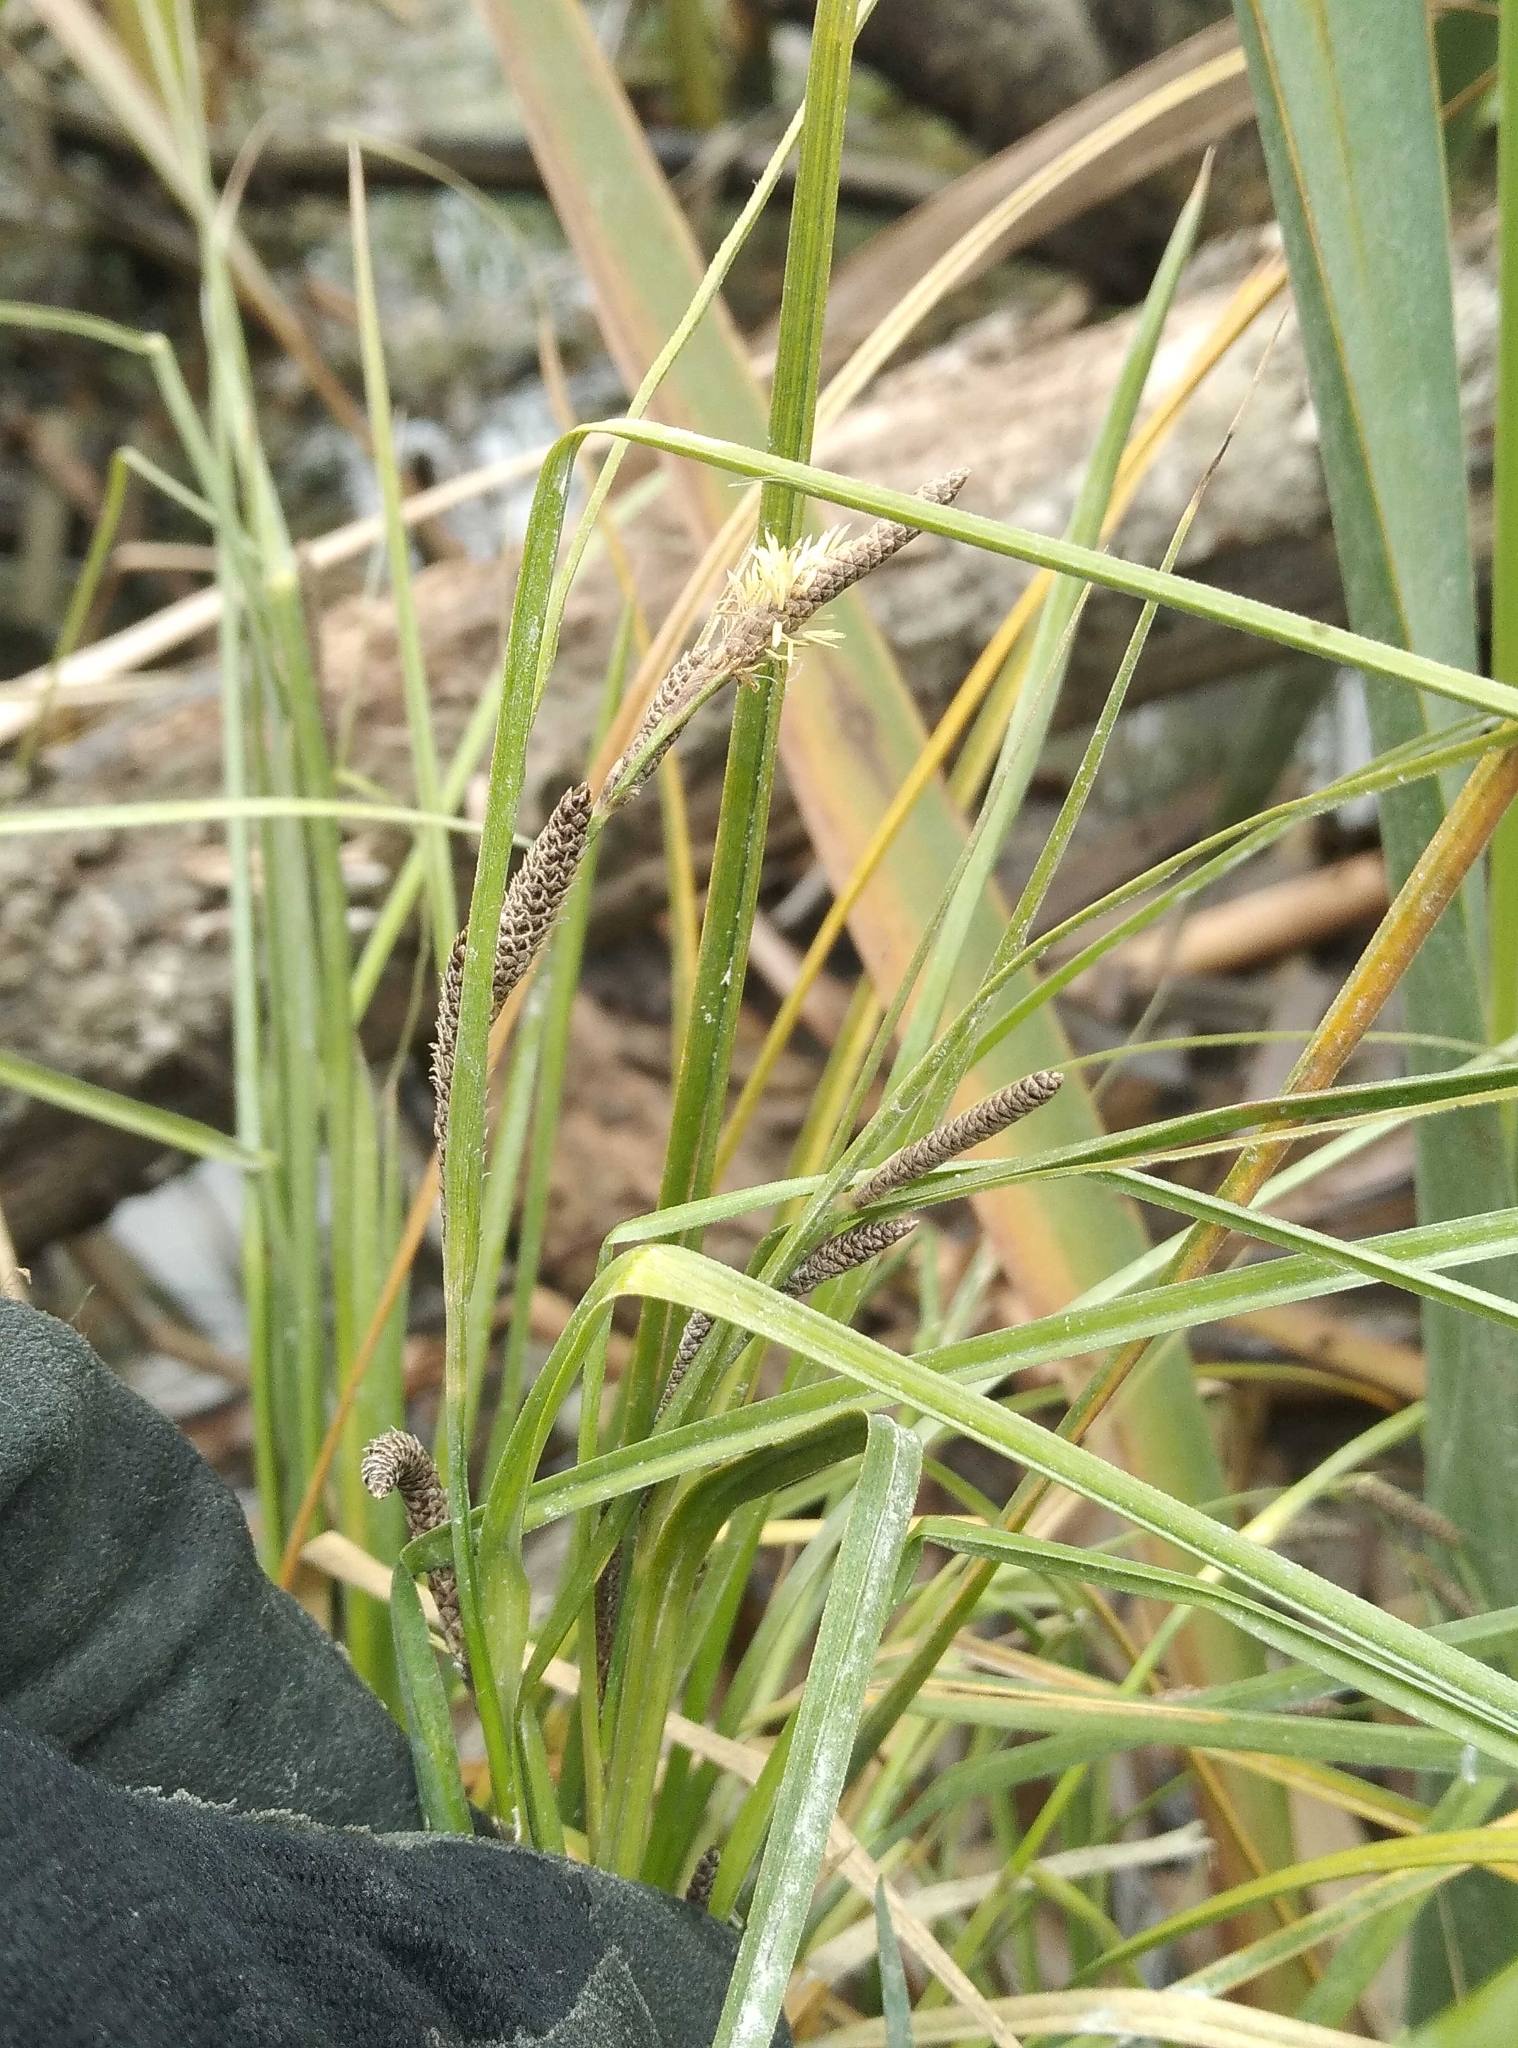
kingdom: Plantae
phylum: Tracheophyta
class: Liliopsida
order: Poales
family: Cyperaceae
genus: Carex
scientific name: Carex dipsacea
